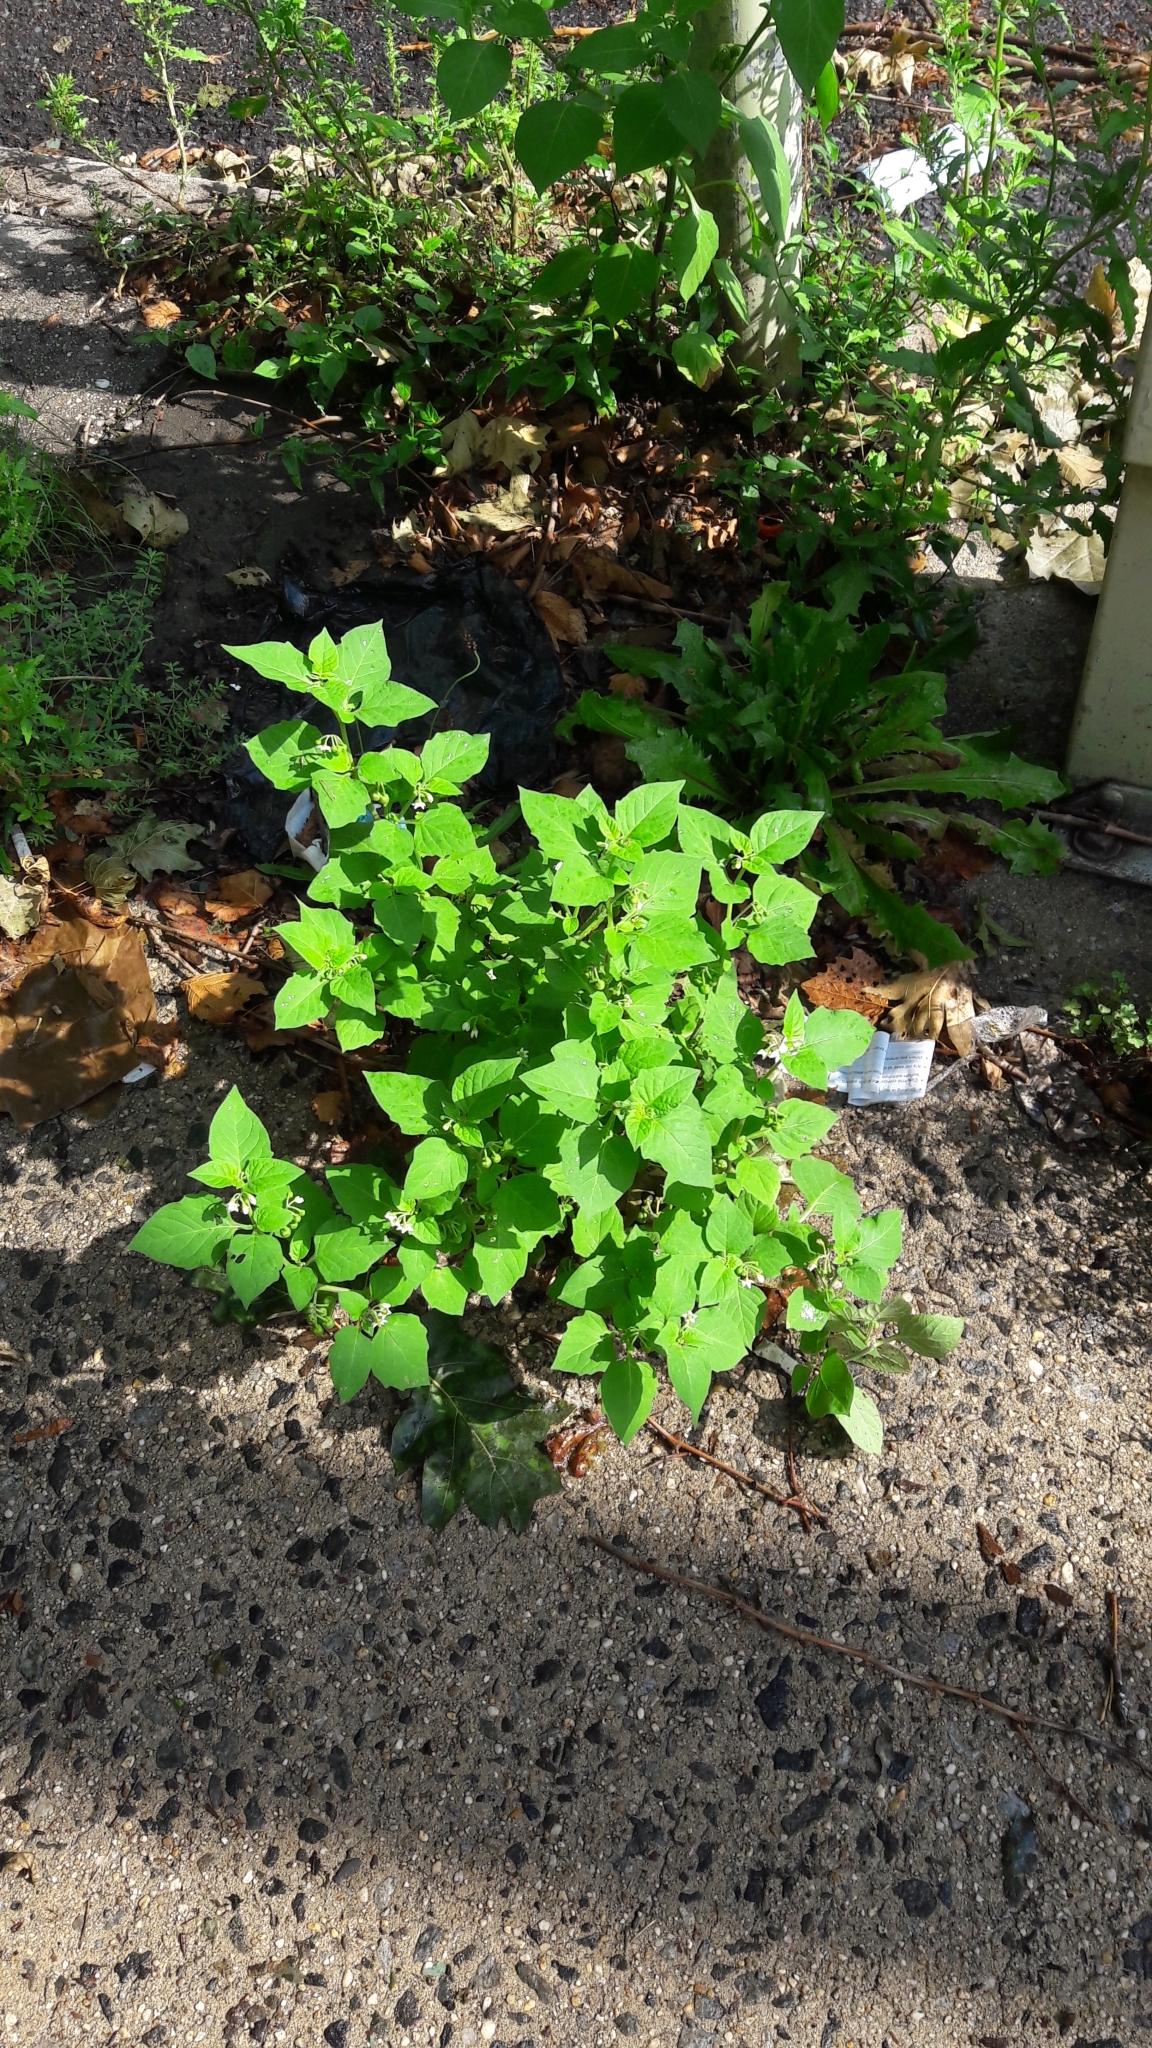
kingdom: Plantae
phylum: Tracheophyta
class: Magnoliopsida
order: Solanales
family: Solanaceae
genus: Solanum
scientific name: Solanum nigrum
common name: Black nightshade
